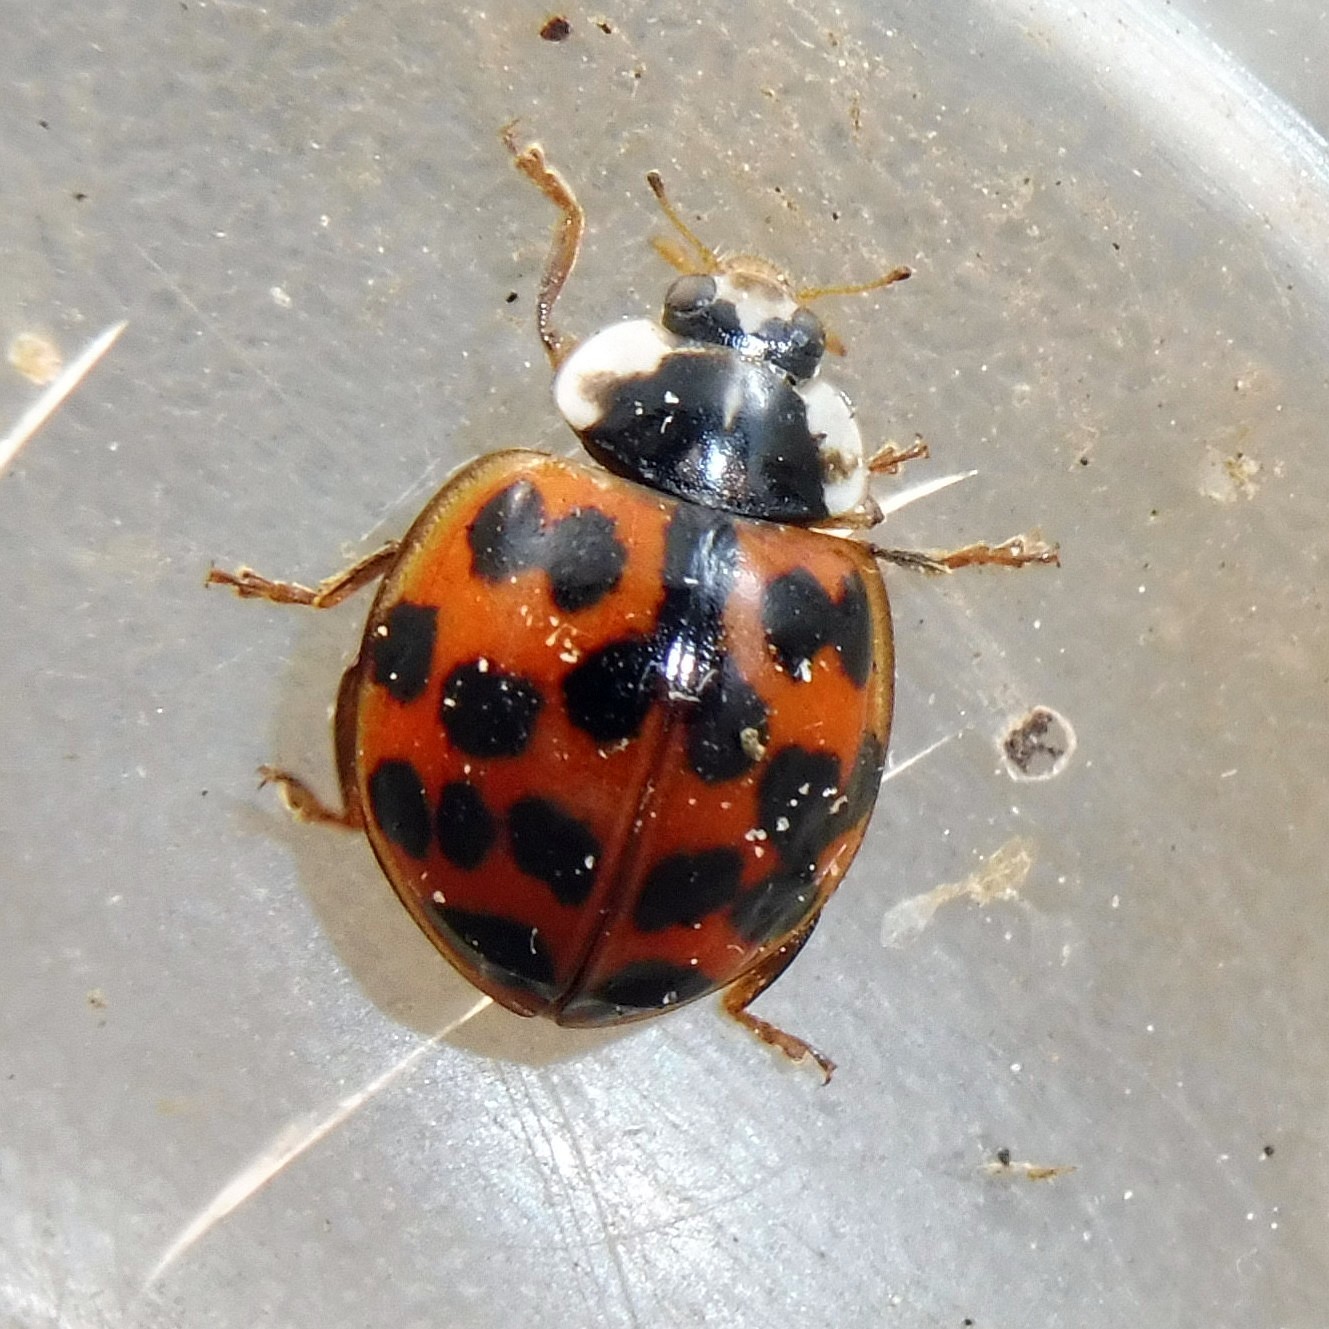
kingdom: Animalia
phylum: Arthropoda
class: Insecta
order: Coleoptera
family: Coccinellidae
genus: Harmonia
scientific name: Harmonia axyridis
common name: Harlequin ladybird
